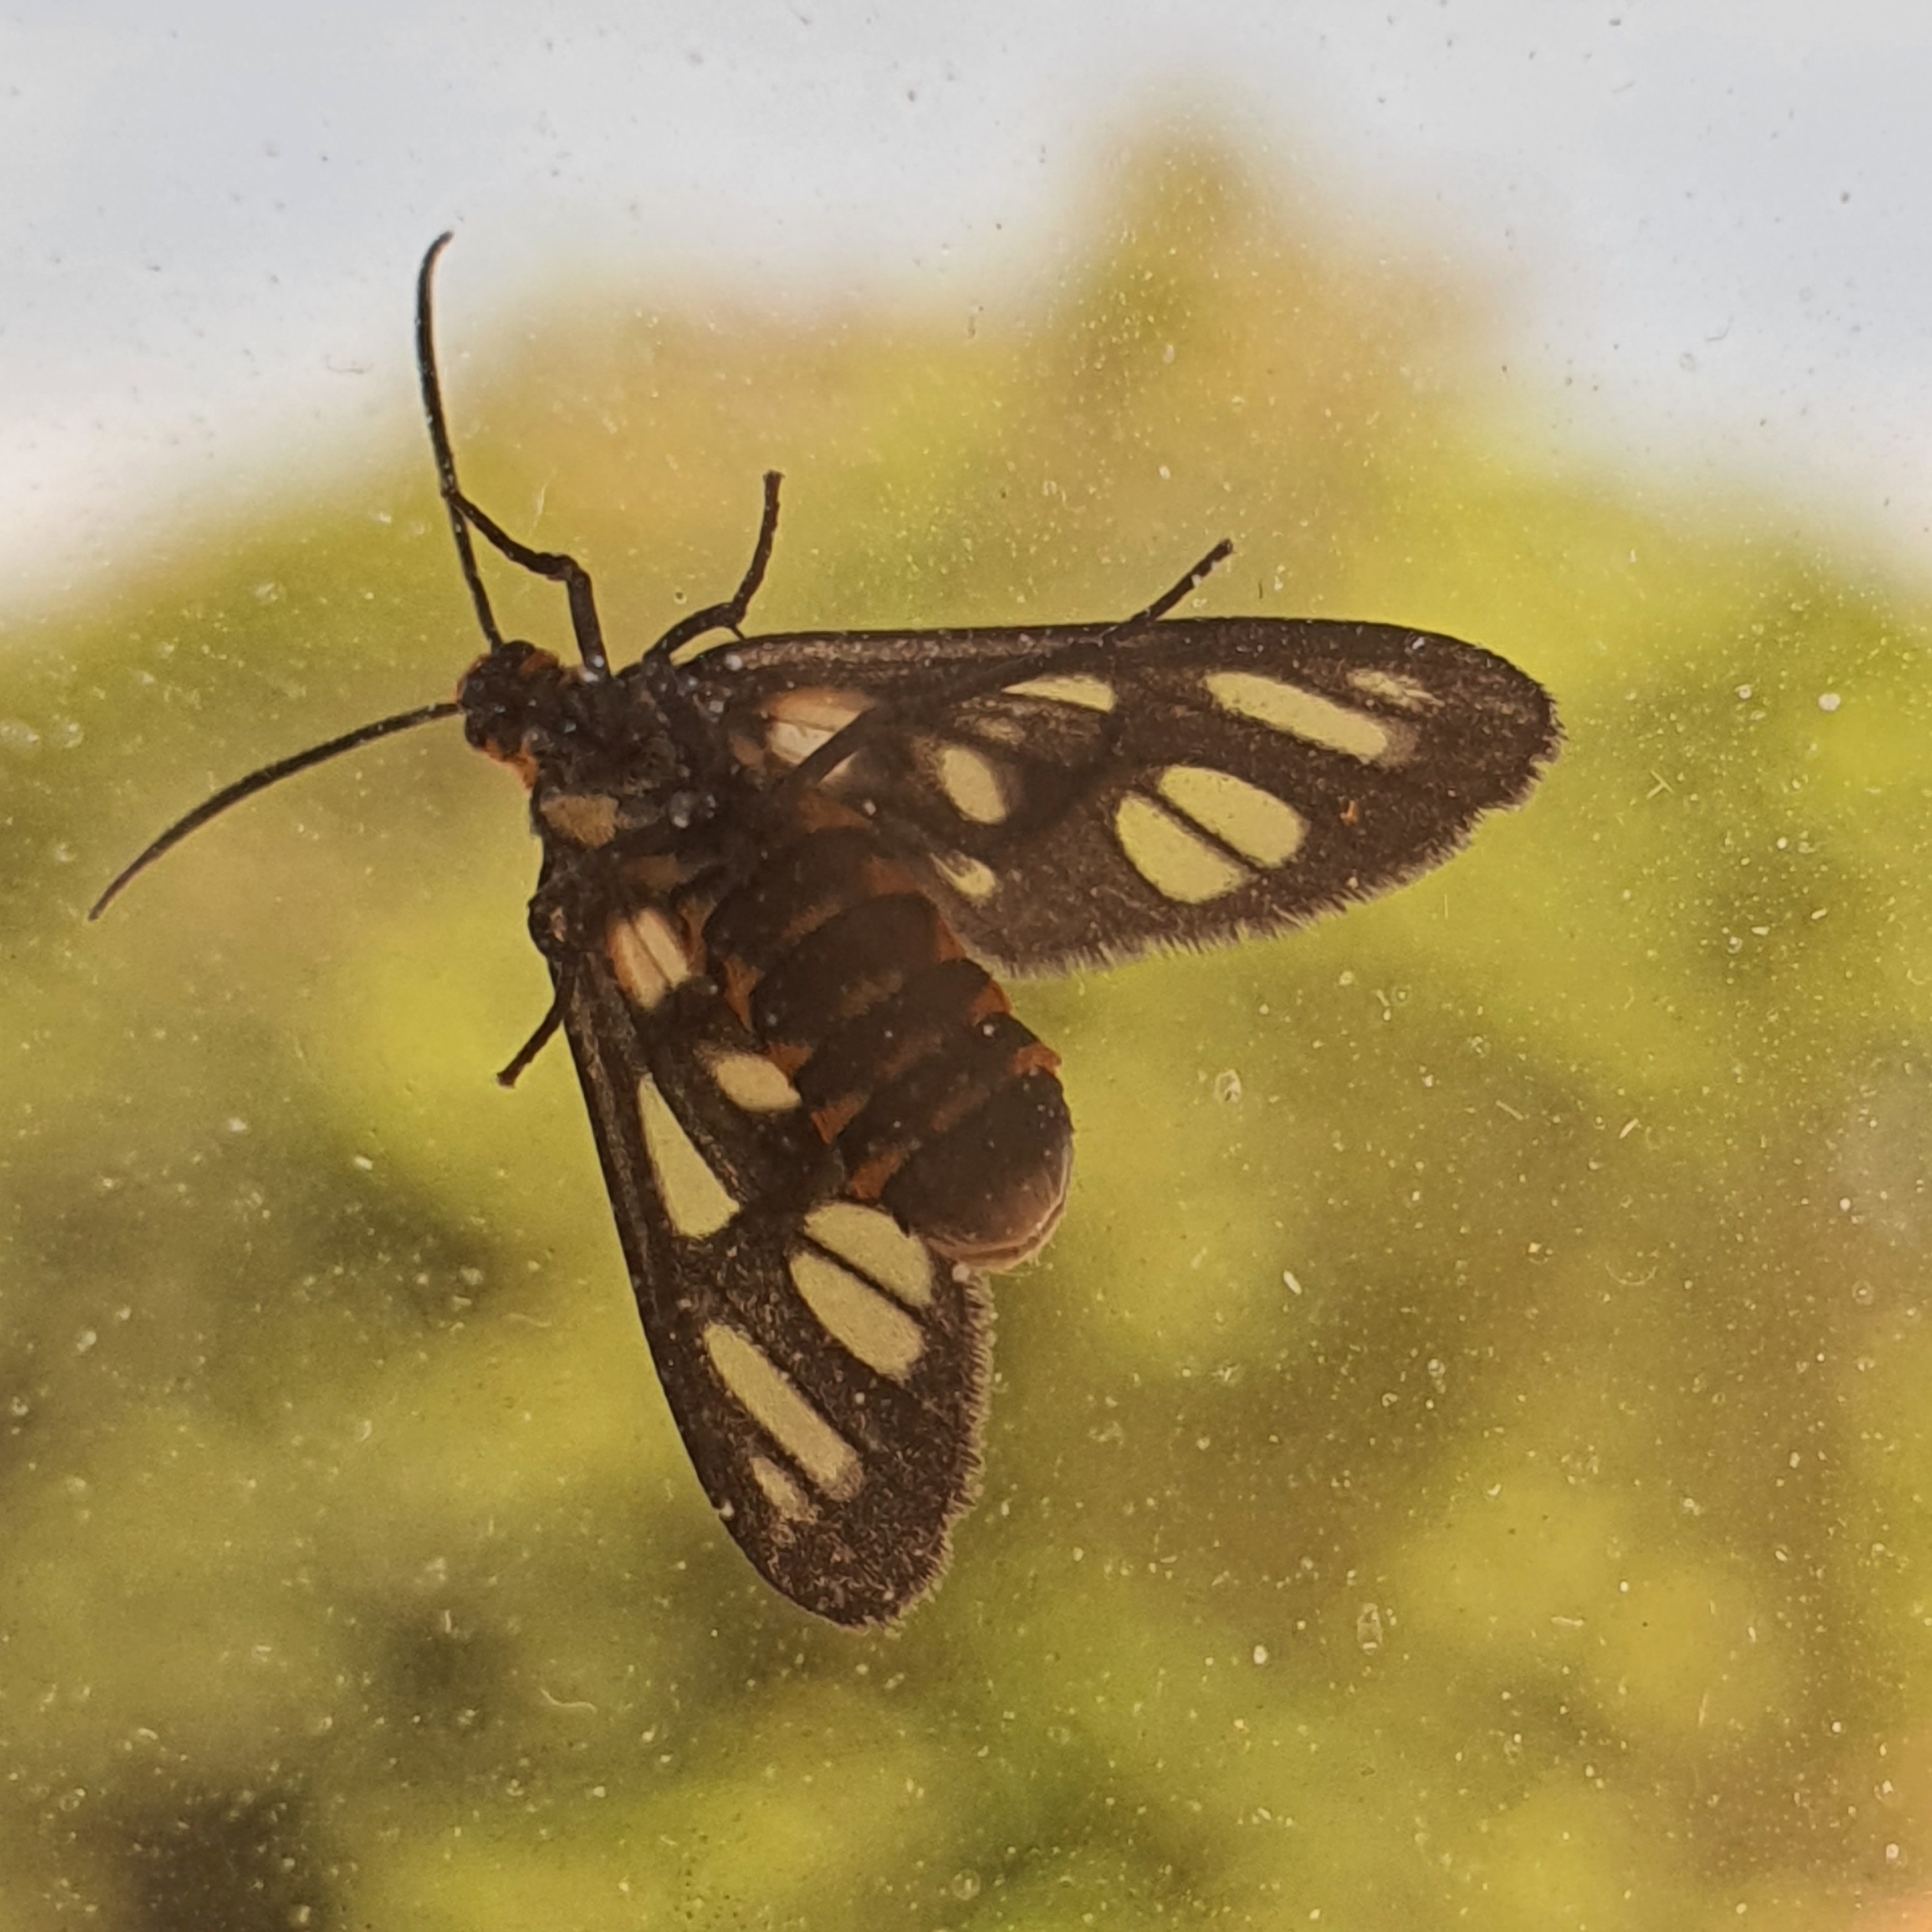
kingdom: Animalia
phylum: Arthropoda
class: Insecta
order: Lepidoptera
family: Erebidae
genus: Amata
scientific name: Amata huebneri
